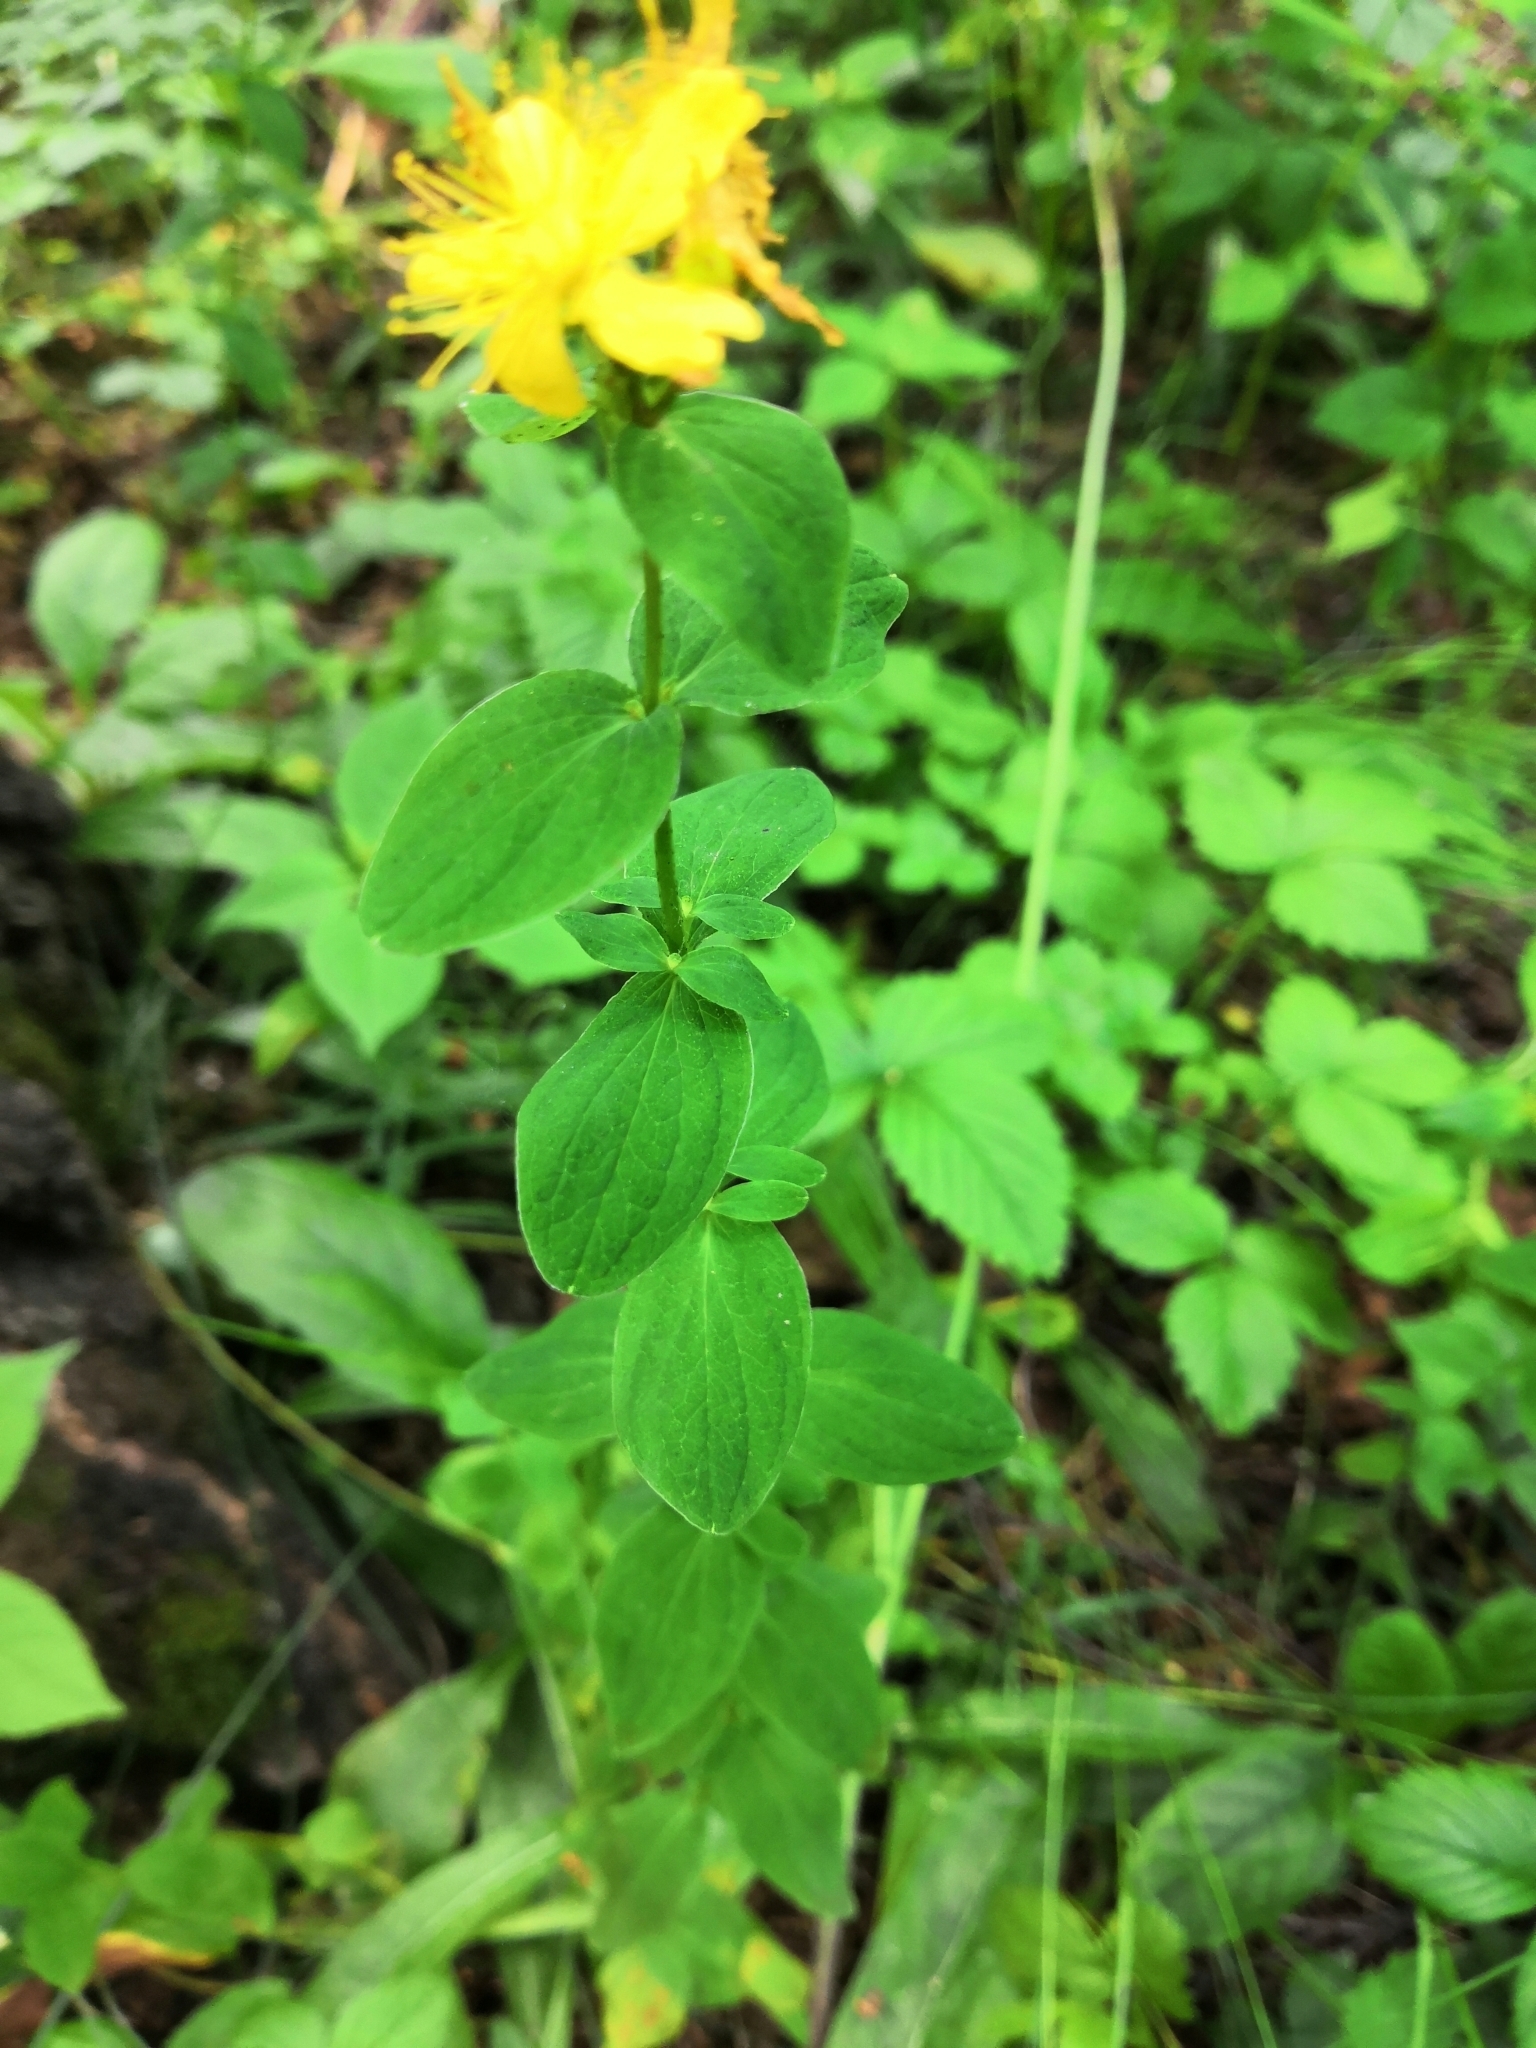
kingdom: Plantae
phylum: Tracheophyta
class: Magnoliopsida
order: Malpighiales
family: Hypericaceae
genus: Hypericum
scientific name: Hypericum maculatum
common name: Imperforate st. john's-wort
